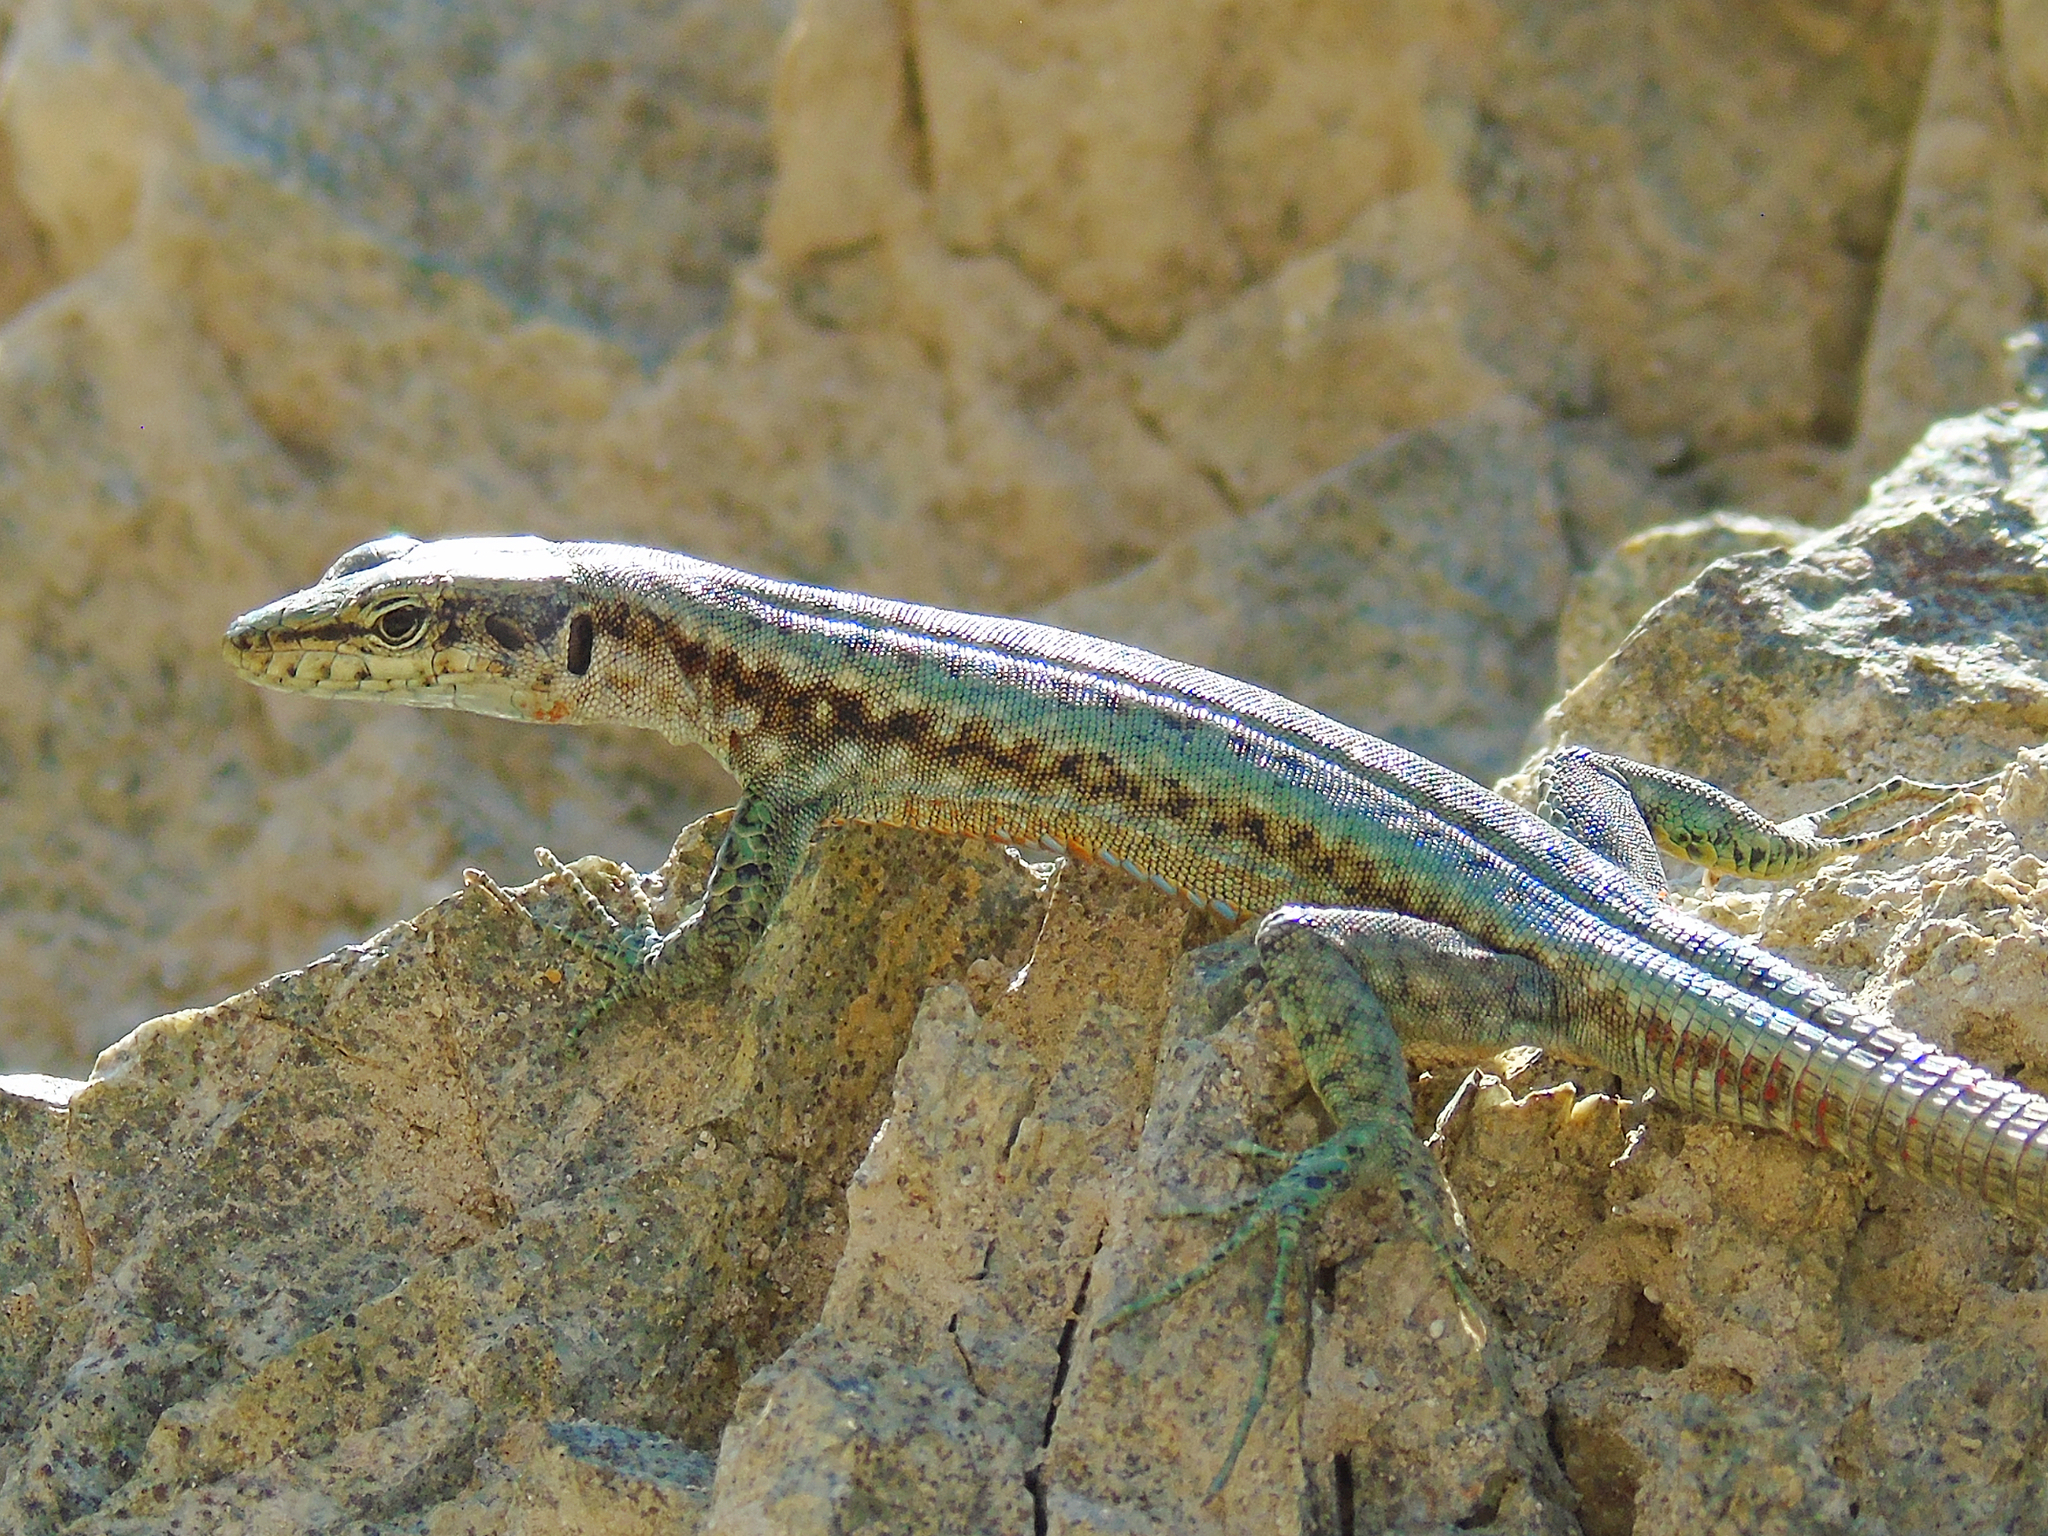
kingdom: Animalia
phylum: Chordata
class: Squamata
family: Lacertidae
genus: Darevskia
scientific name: Darevskia parvula
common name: Georgian lizard
